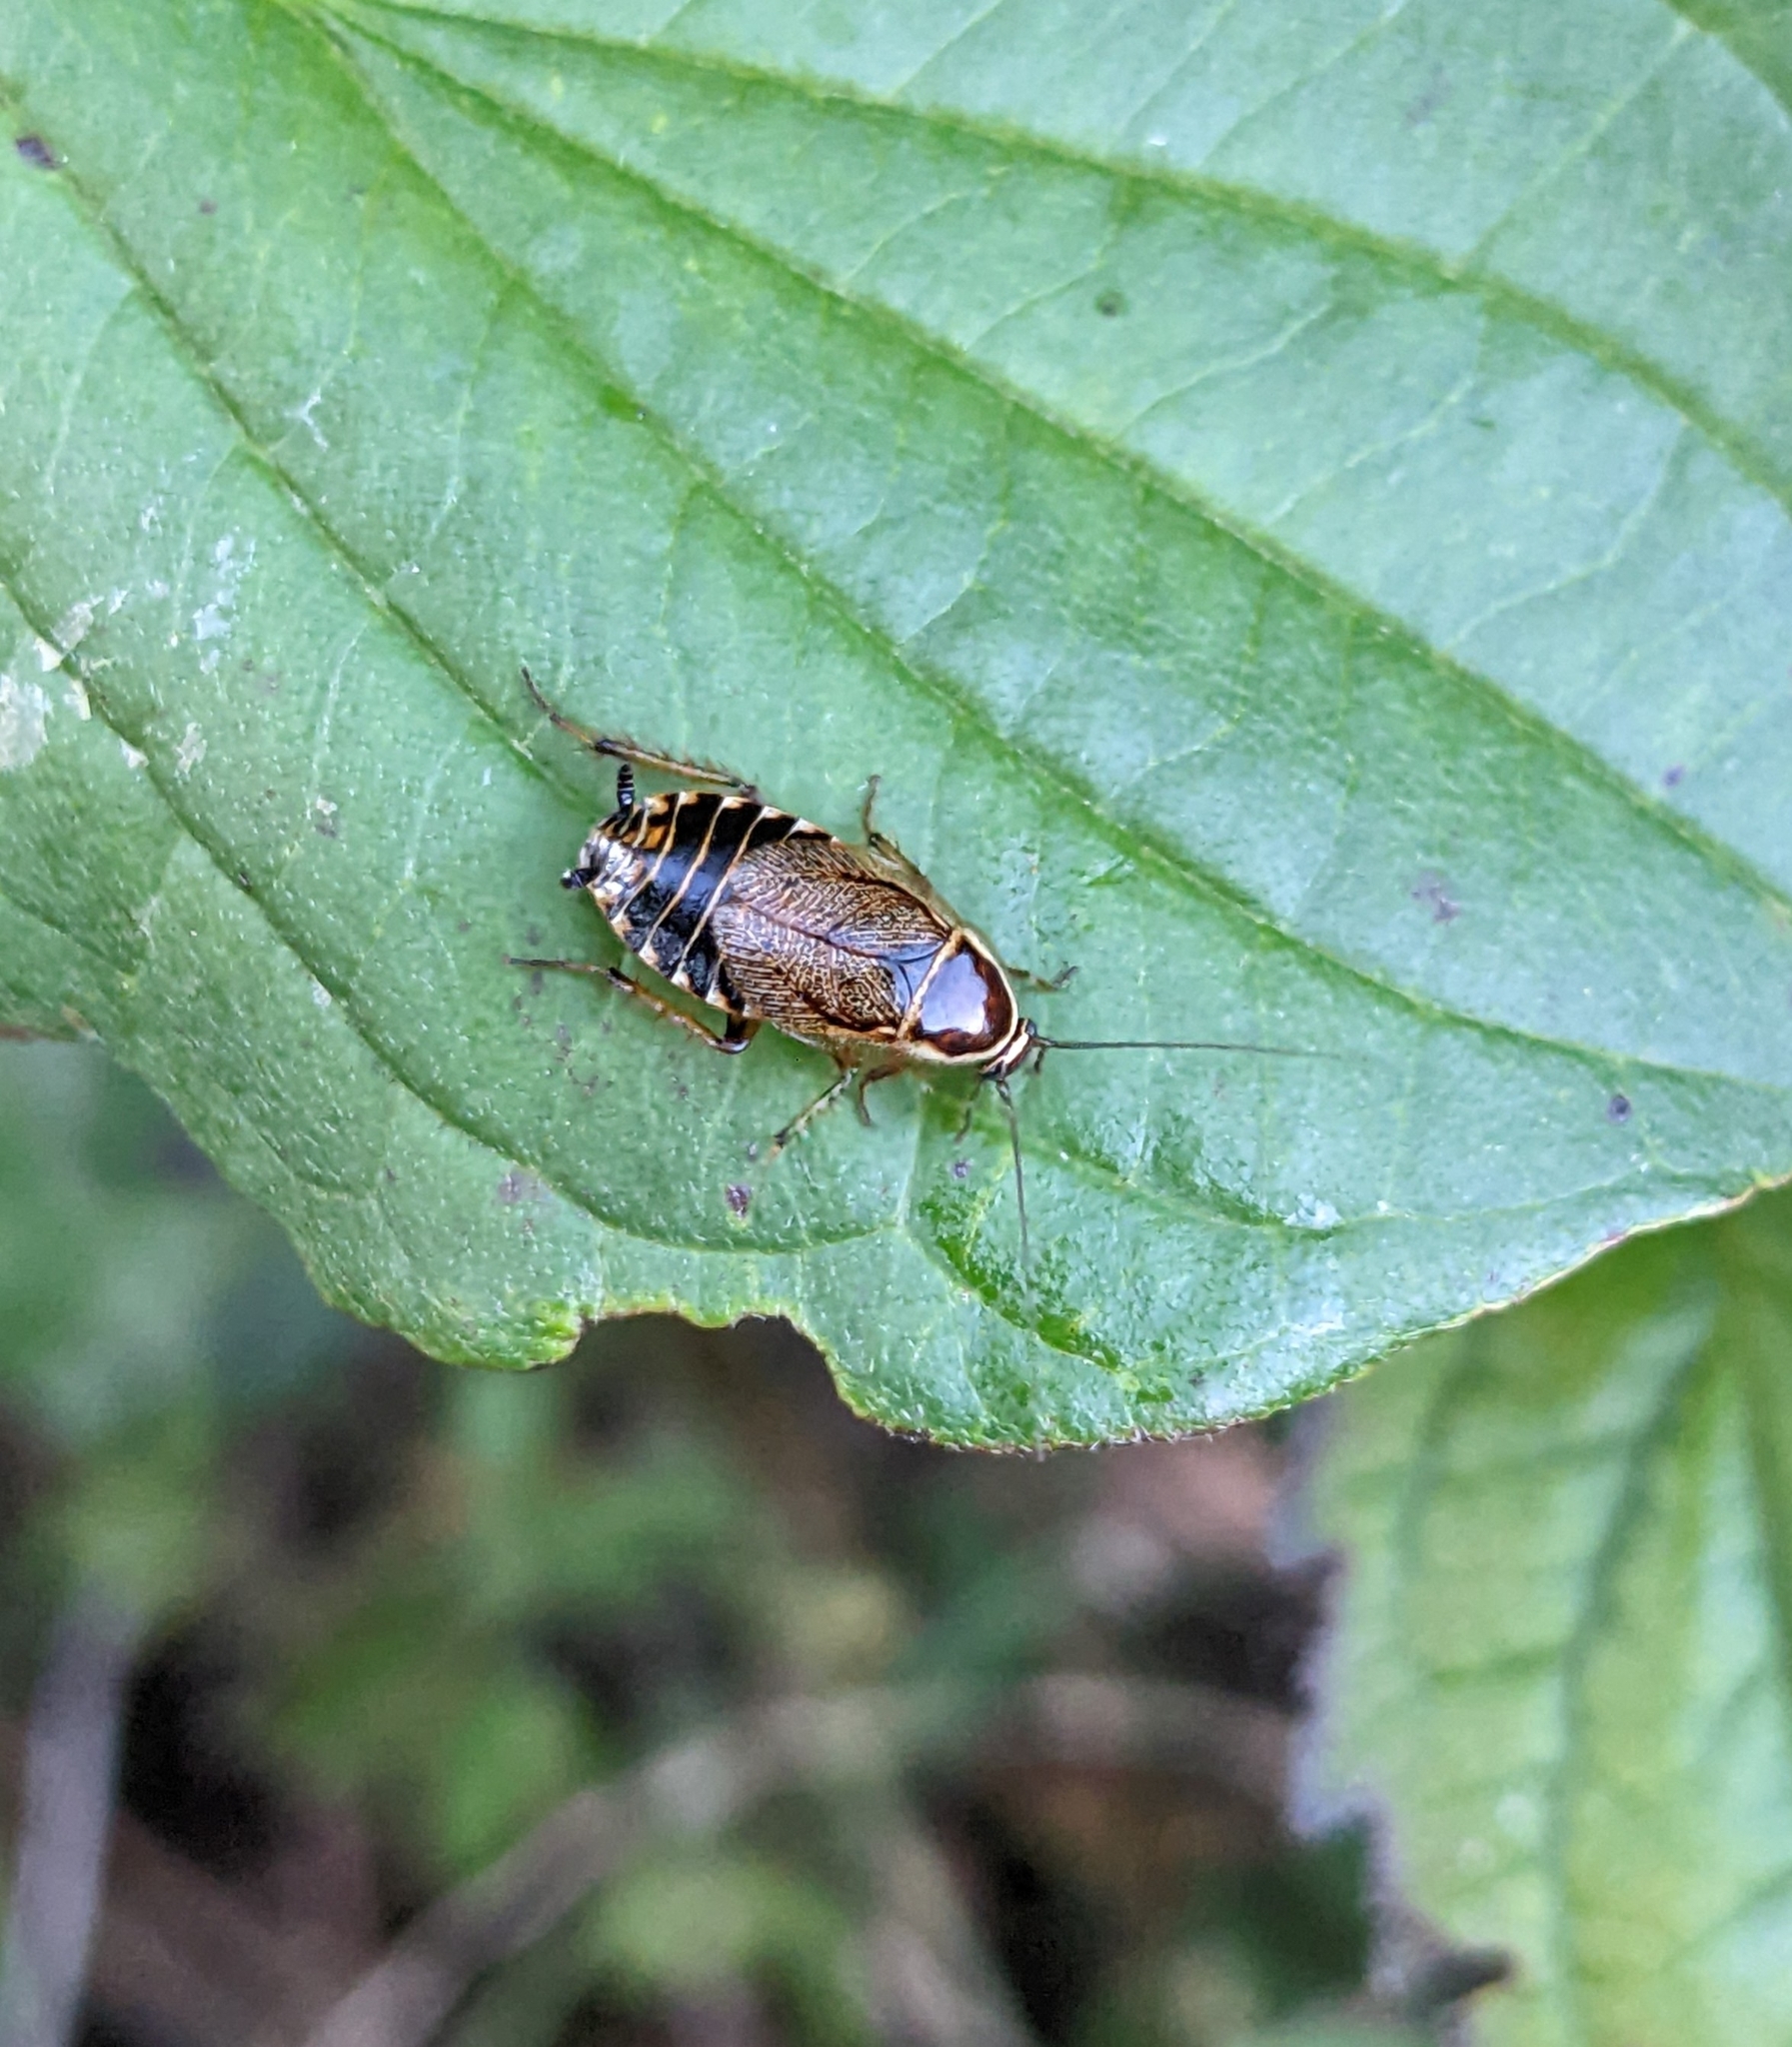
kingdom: Animalia
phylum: Arthropoda
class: Insecta
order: Blattodea
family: Ectobiidae
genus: Ectobius
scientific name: Ectobius sylvestris
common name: Forest cockroach
